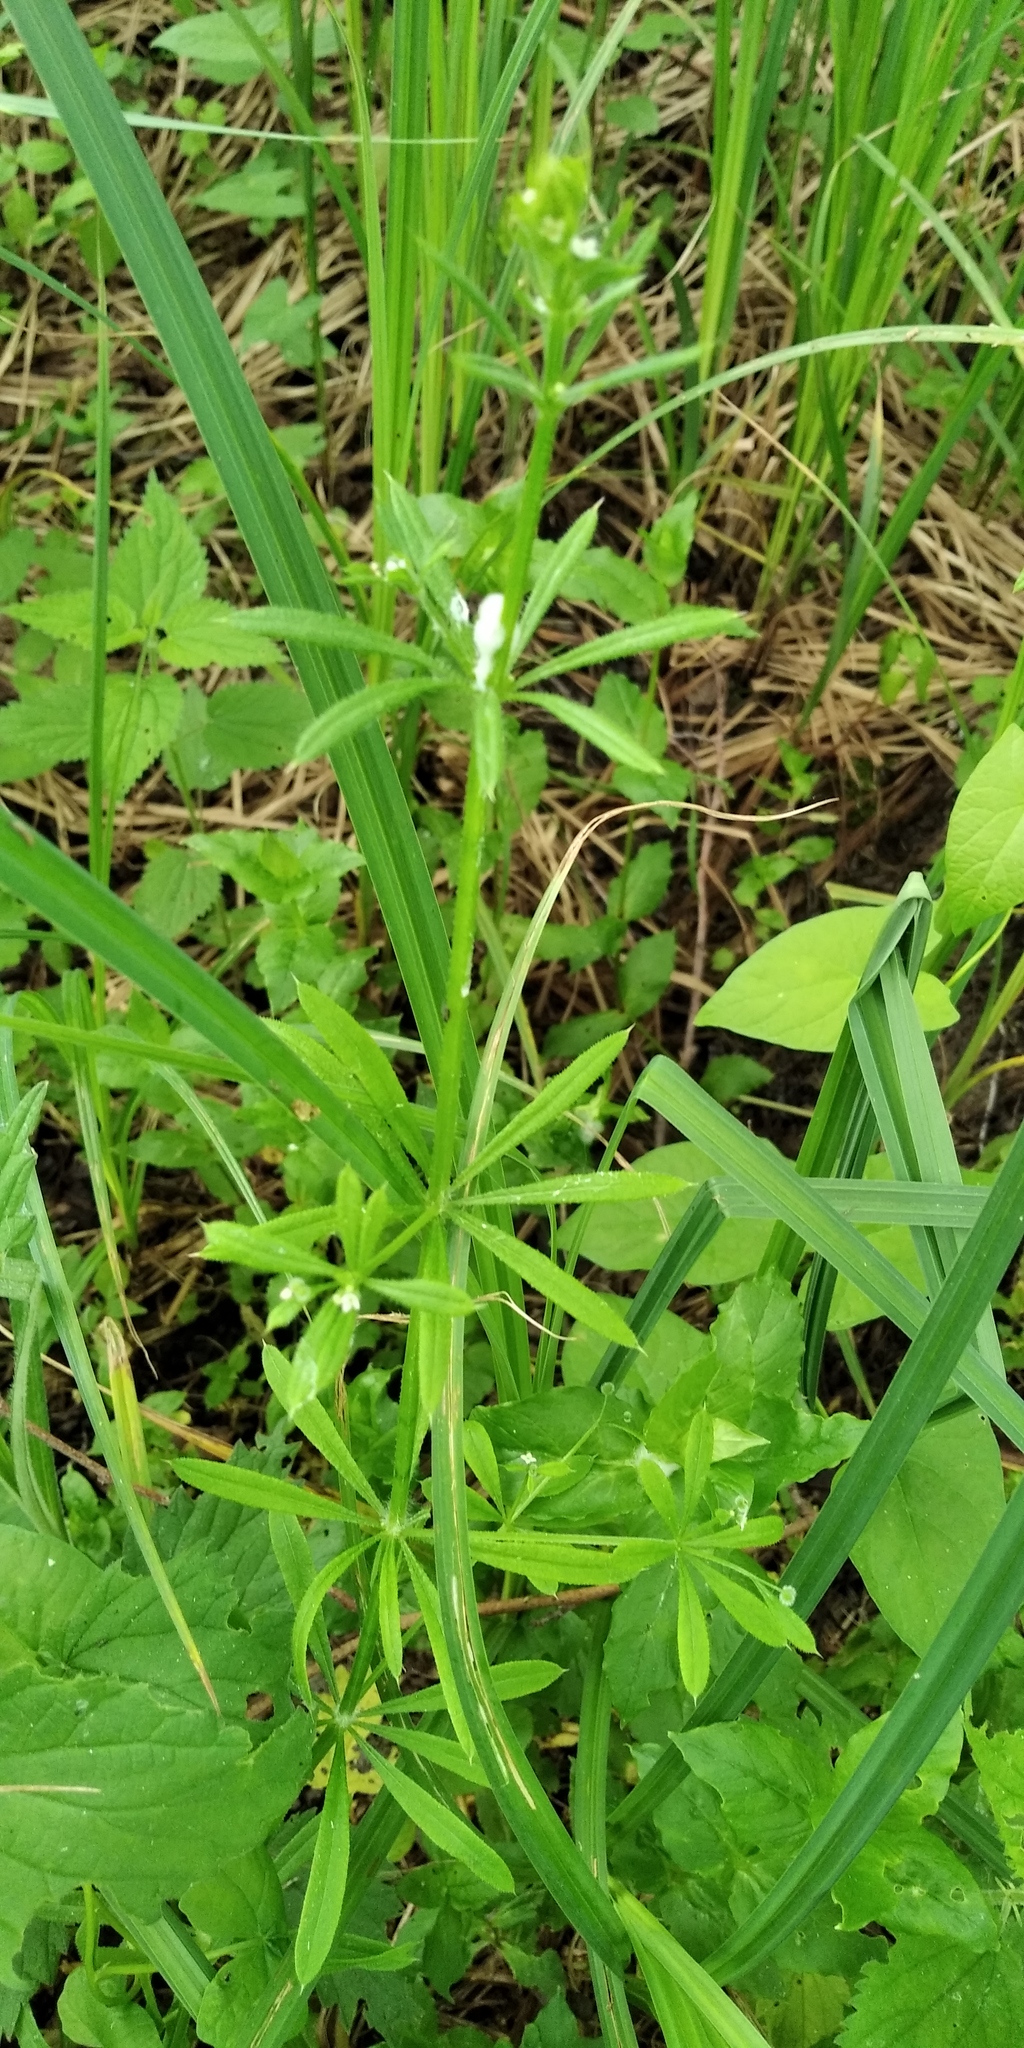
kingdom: Plantae
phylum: Tracheophyta
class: Magnoliopsida
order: Gentianales
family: Rubiaceae
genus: Galium
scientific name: Galium aparine
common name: Cleavers
